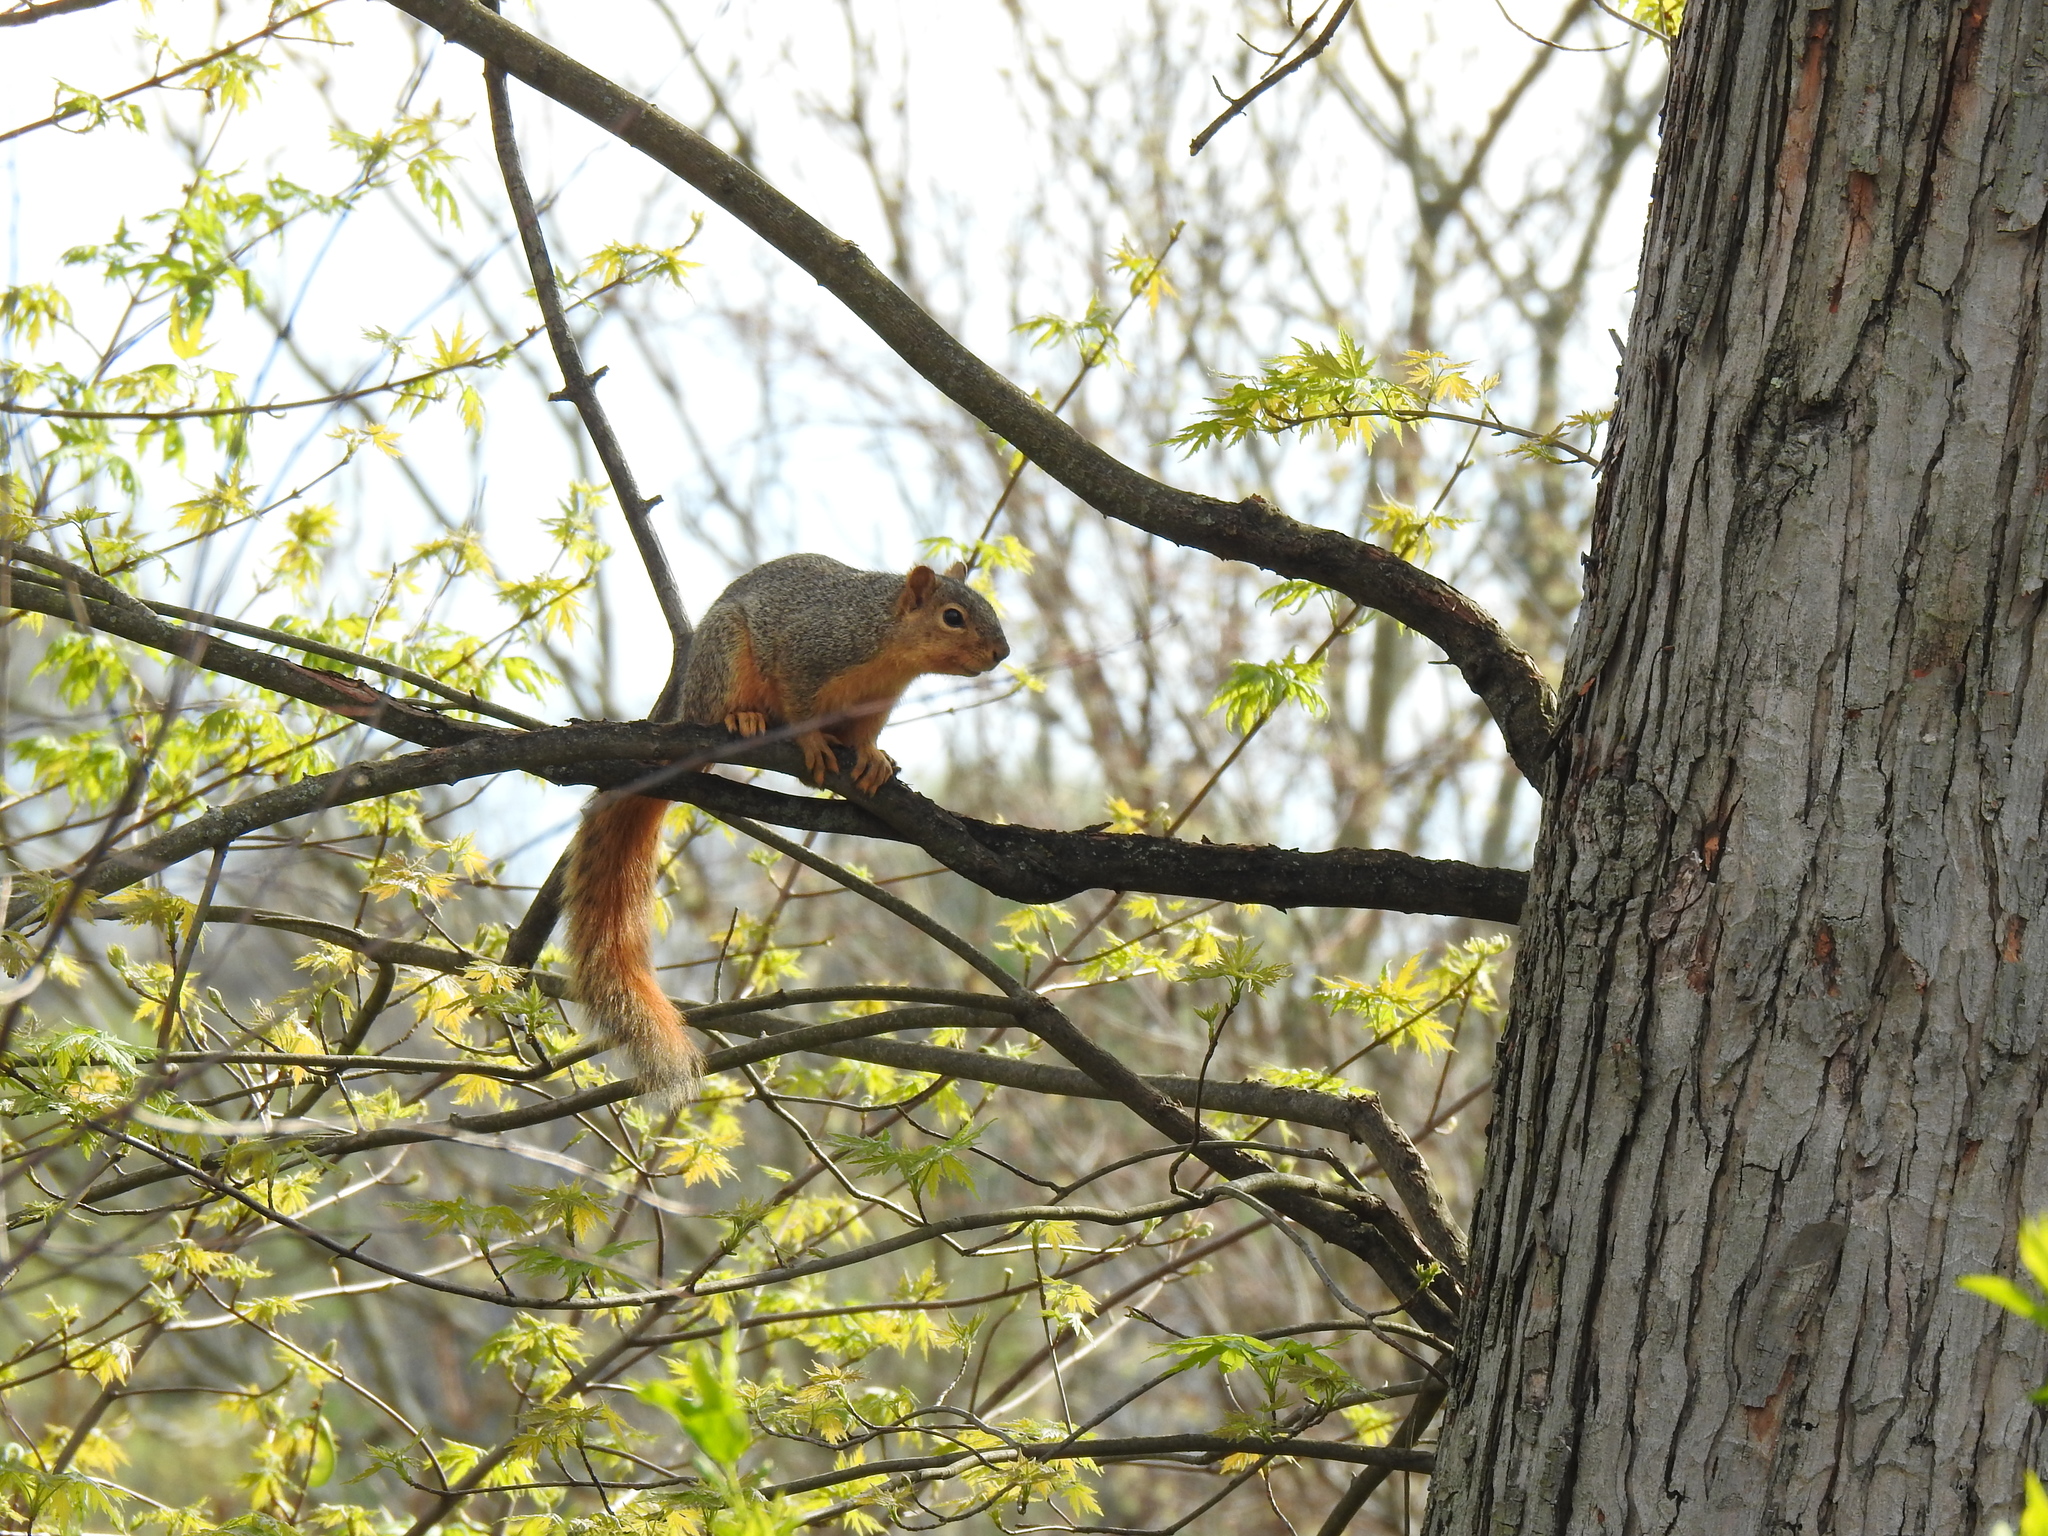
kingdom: Animalia
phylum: Chordata
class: Mammalia
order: Rodentia
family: Sciuridae
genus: Sciurus
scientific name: Sciurus niger
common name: Fox squirrel
